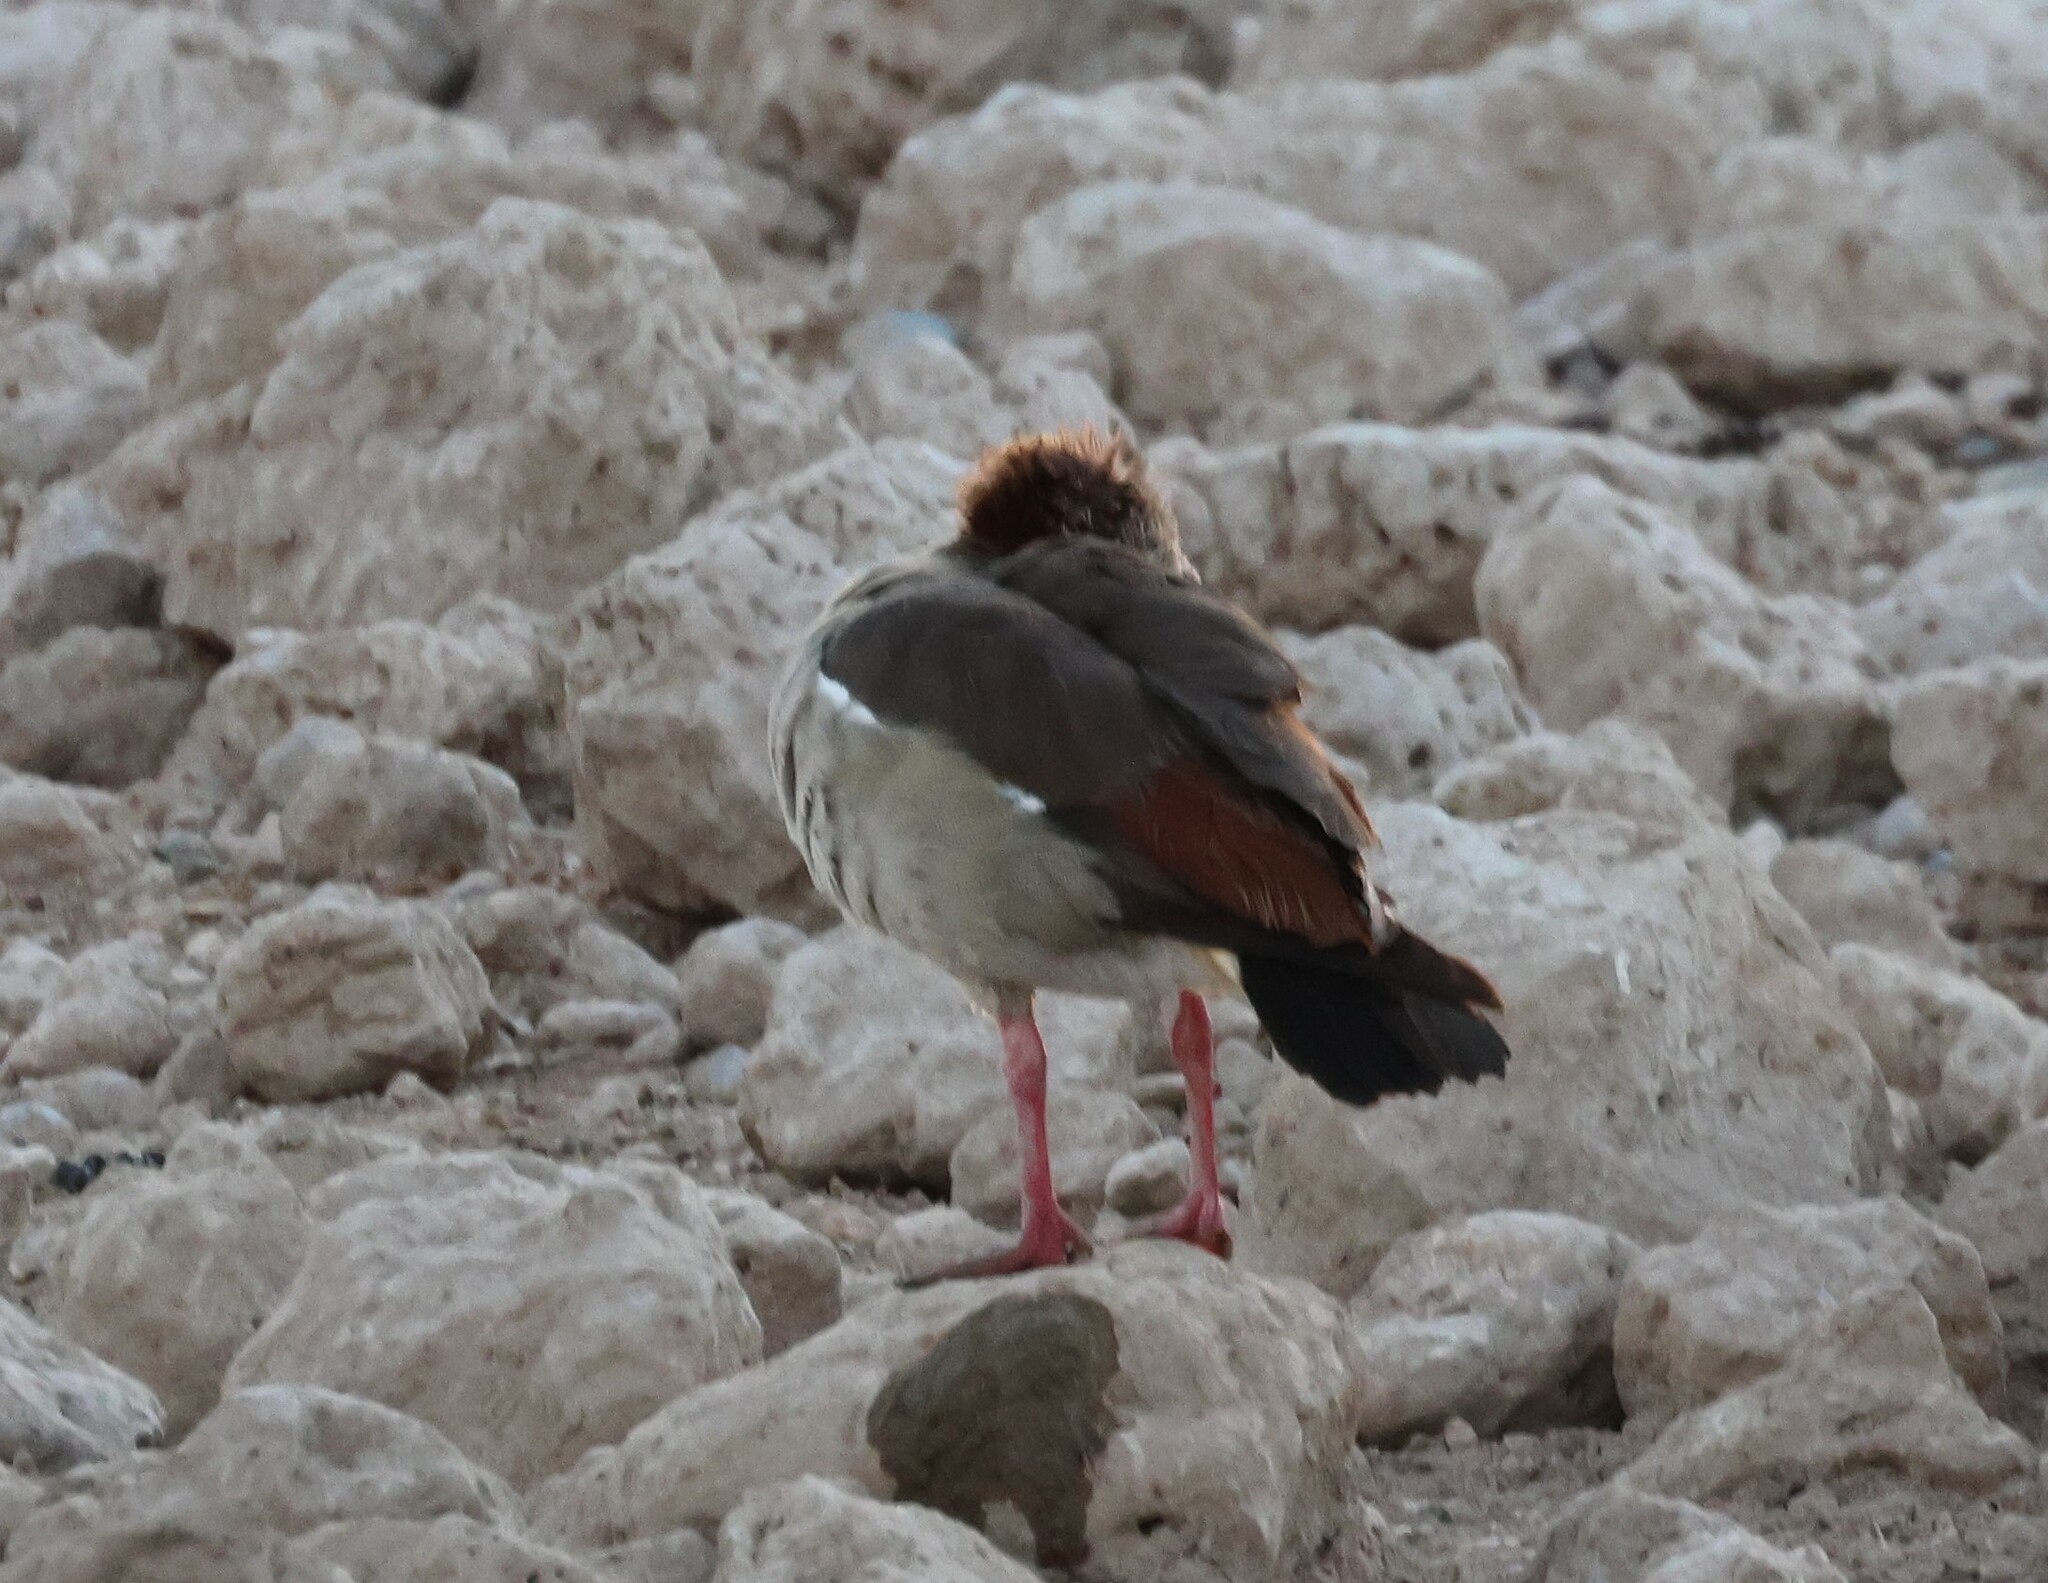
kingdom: Animalia
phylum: Chordata
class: Aves
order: Anseriformes
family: Anatidae
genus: Alopochen
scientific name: Alopochen aegyptiaca
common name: Egyptian goose
